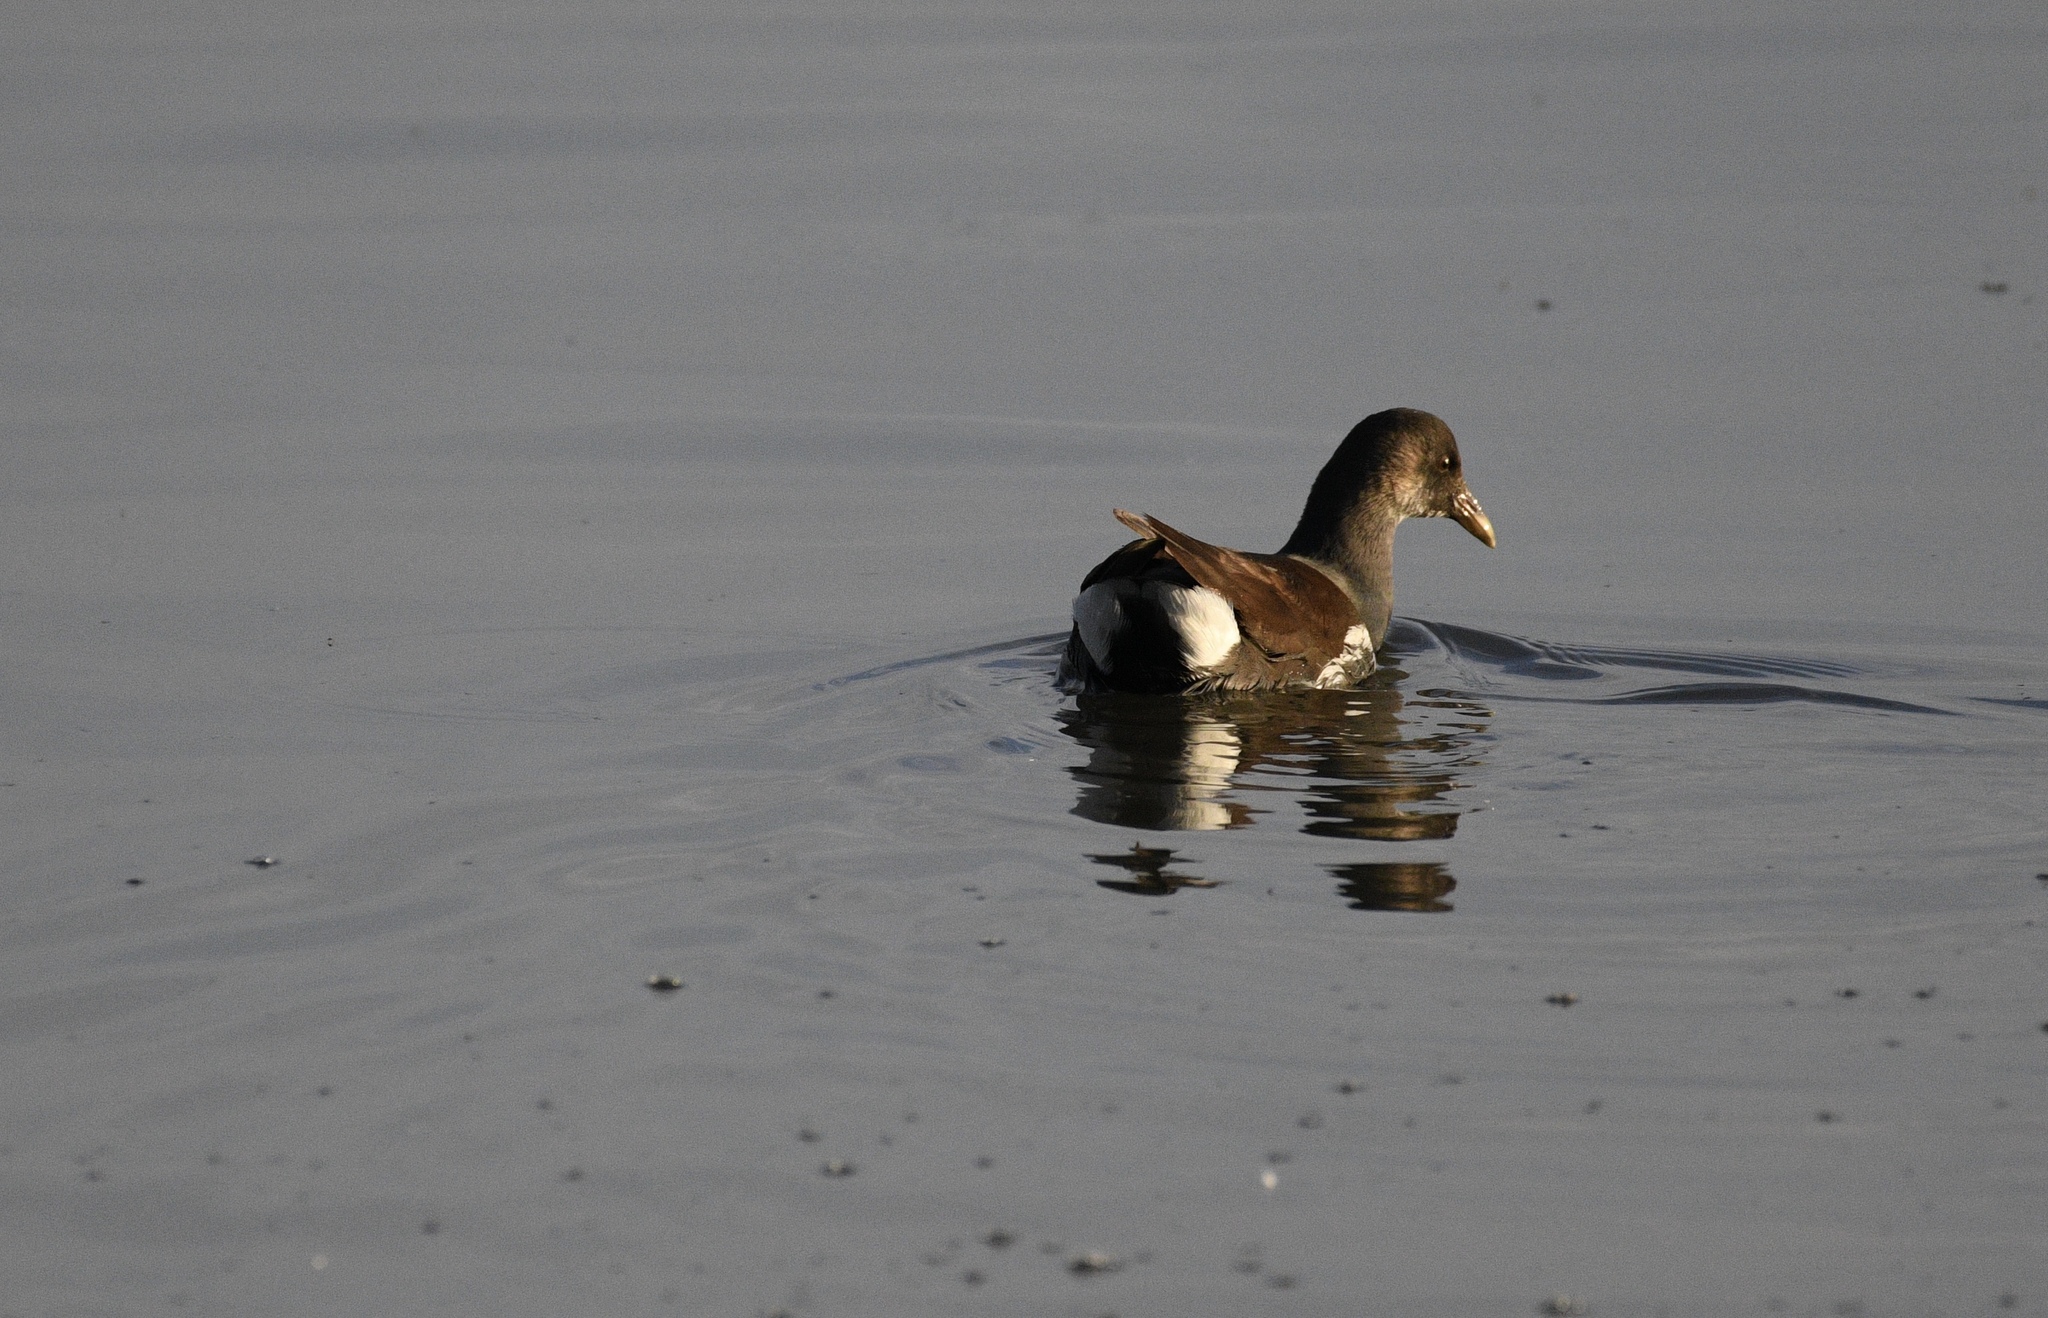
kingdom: Animalia
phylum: Chordata
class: Aves
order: Gruiformes
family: Rallidae
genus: Gallinula
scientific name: Gallinula chloropus
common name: Common moorhen
